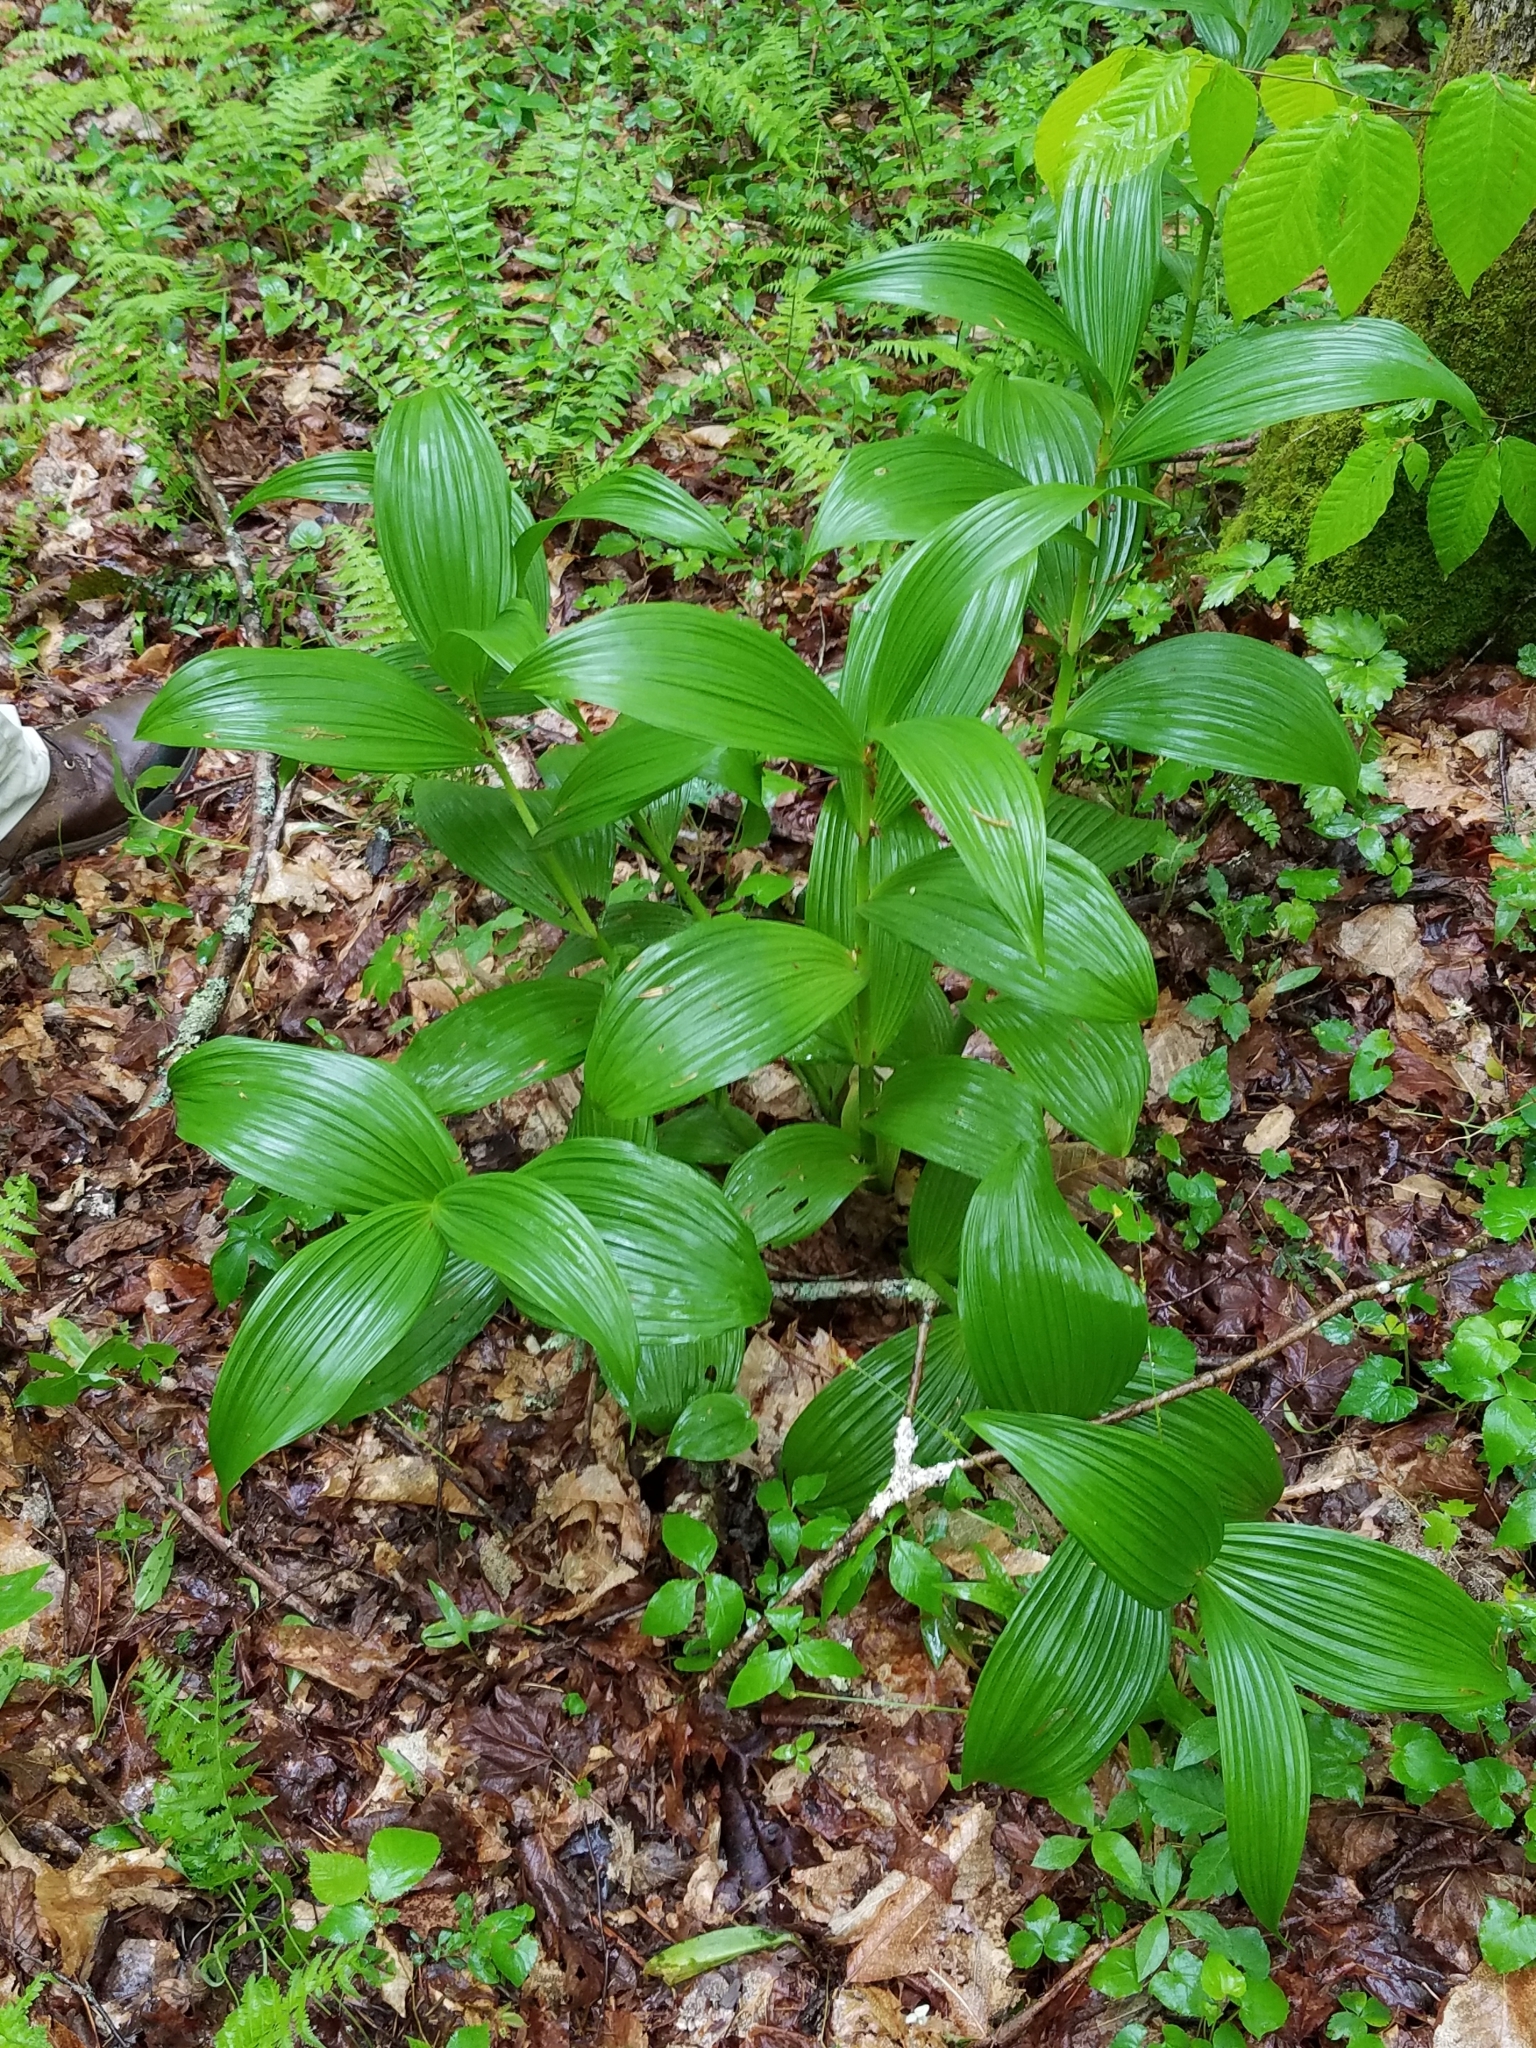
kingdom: Plantae
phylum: Tracheophyta
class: Liliopsida
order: Liliales
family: Melanthiaceae
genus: Veratrum
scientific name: Veratrum viride
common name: American false hellebore
